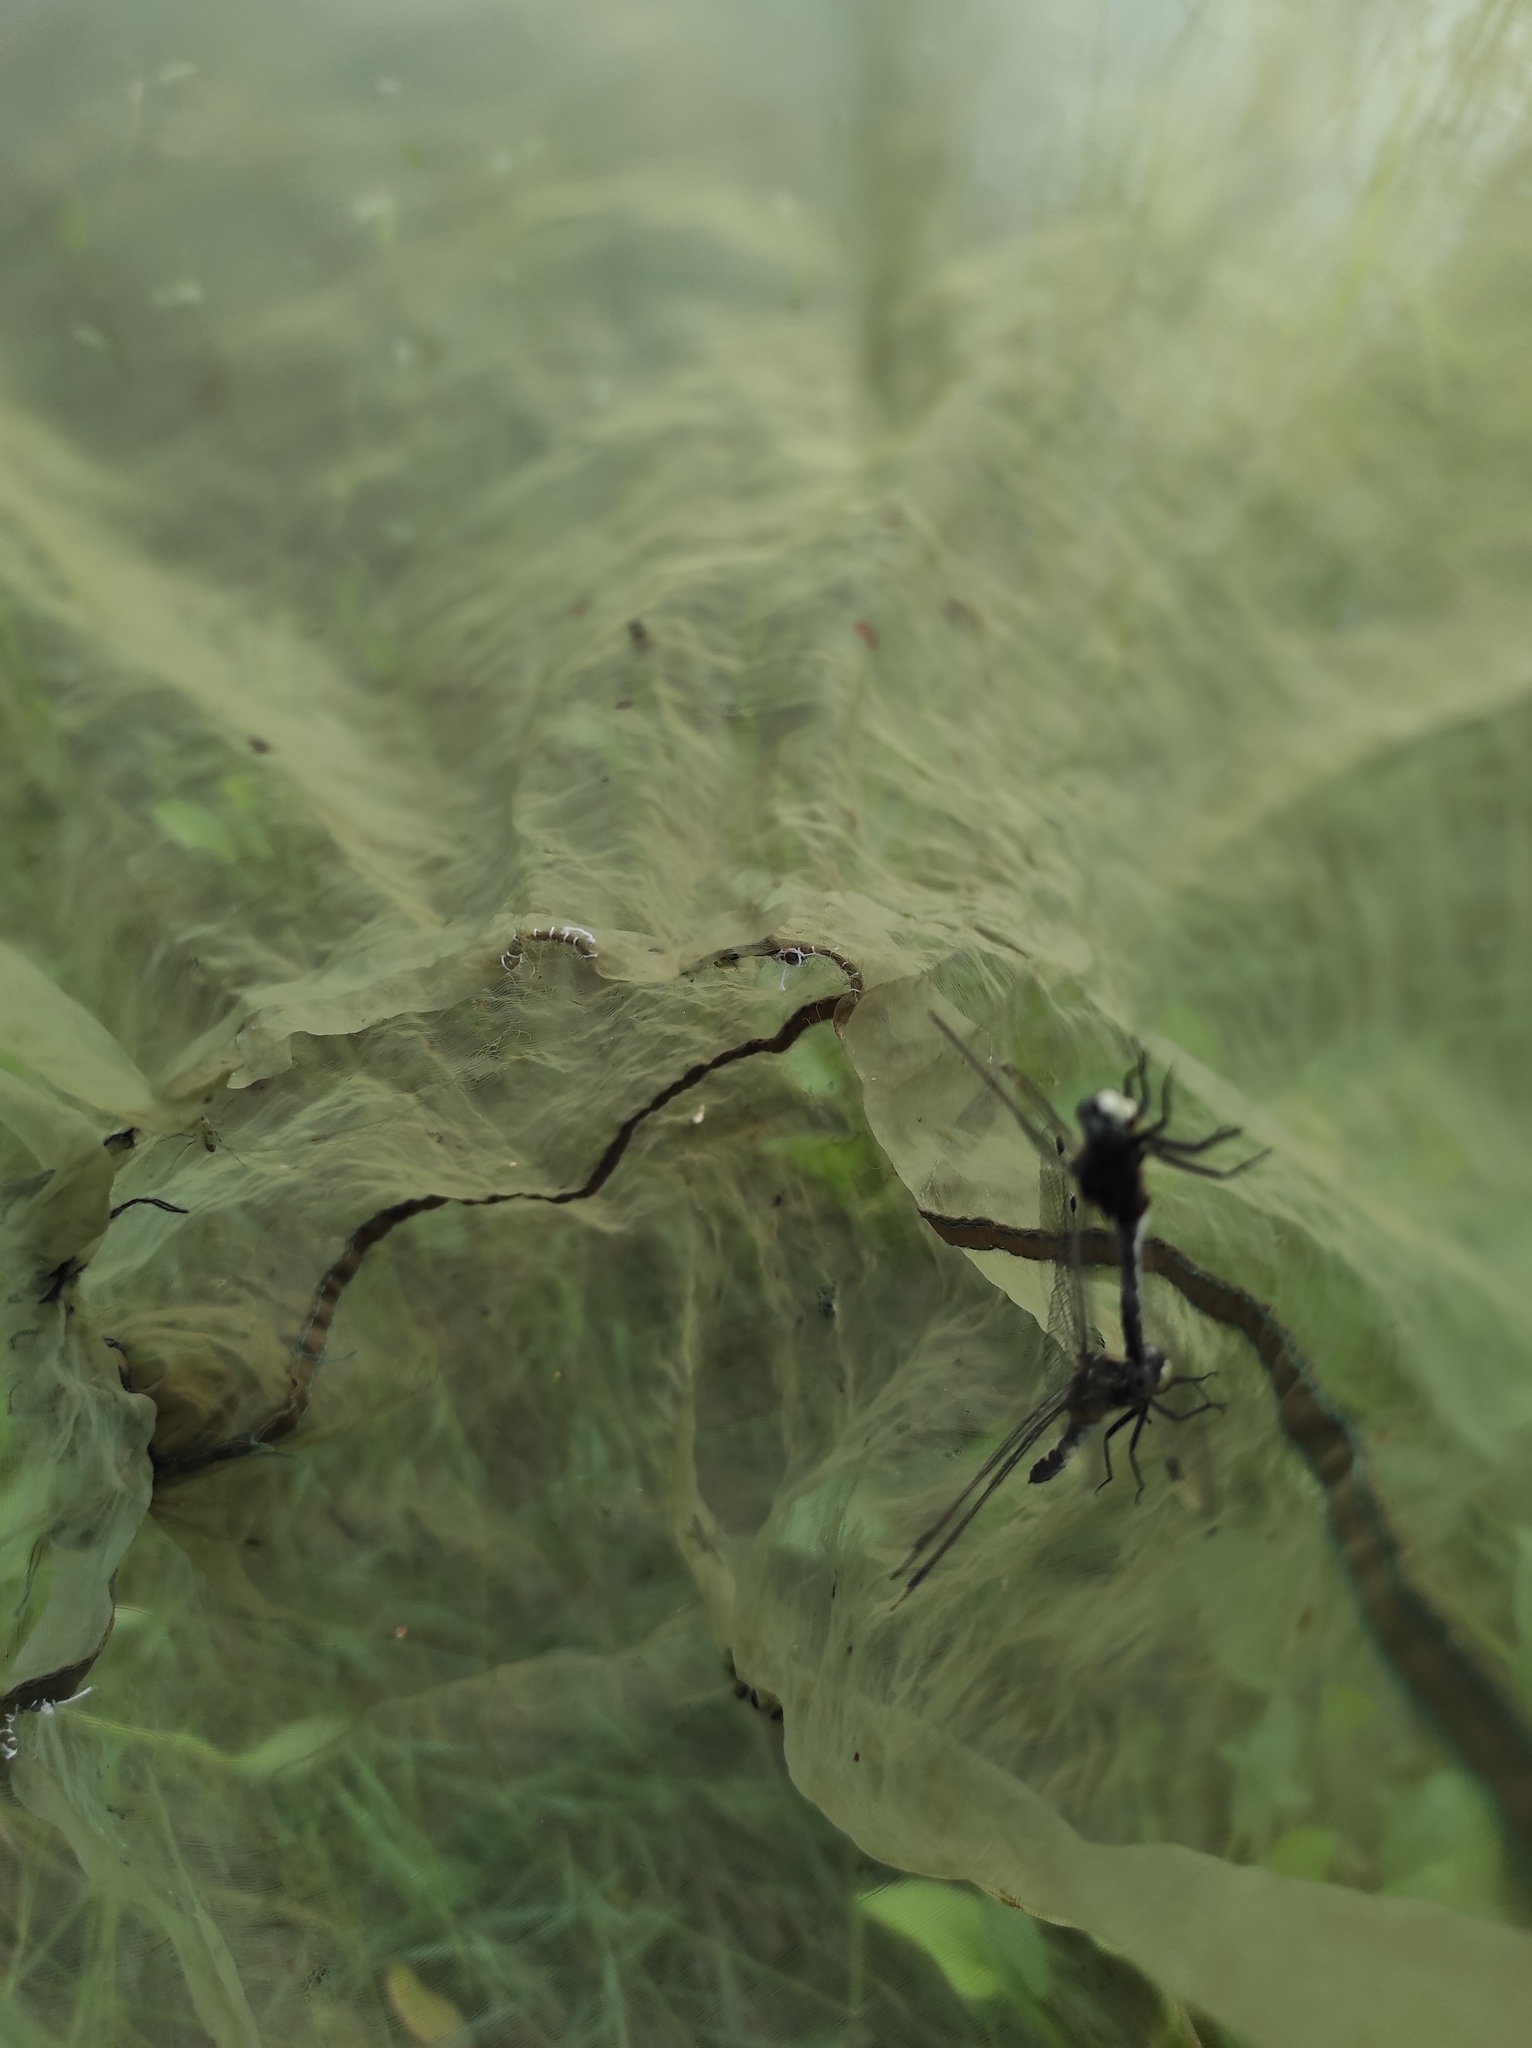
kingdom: Animalia
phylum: Arthropoda
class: Insecta
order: Odonata
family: Libellulidae
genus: Leucorrhinia
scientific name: Leucorrhinia orientalis
